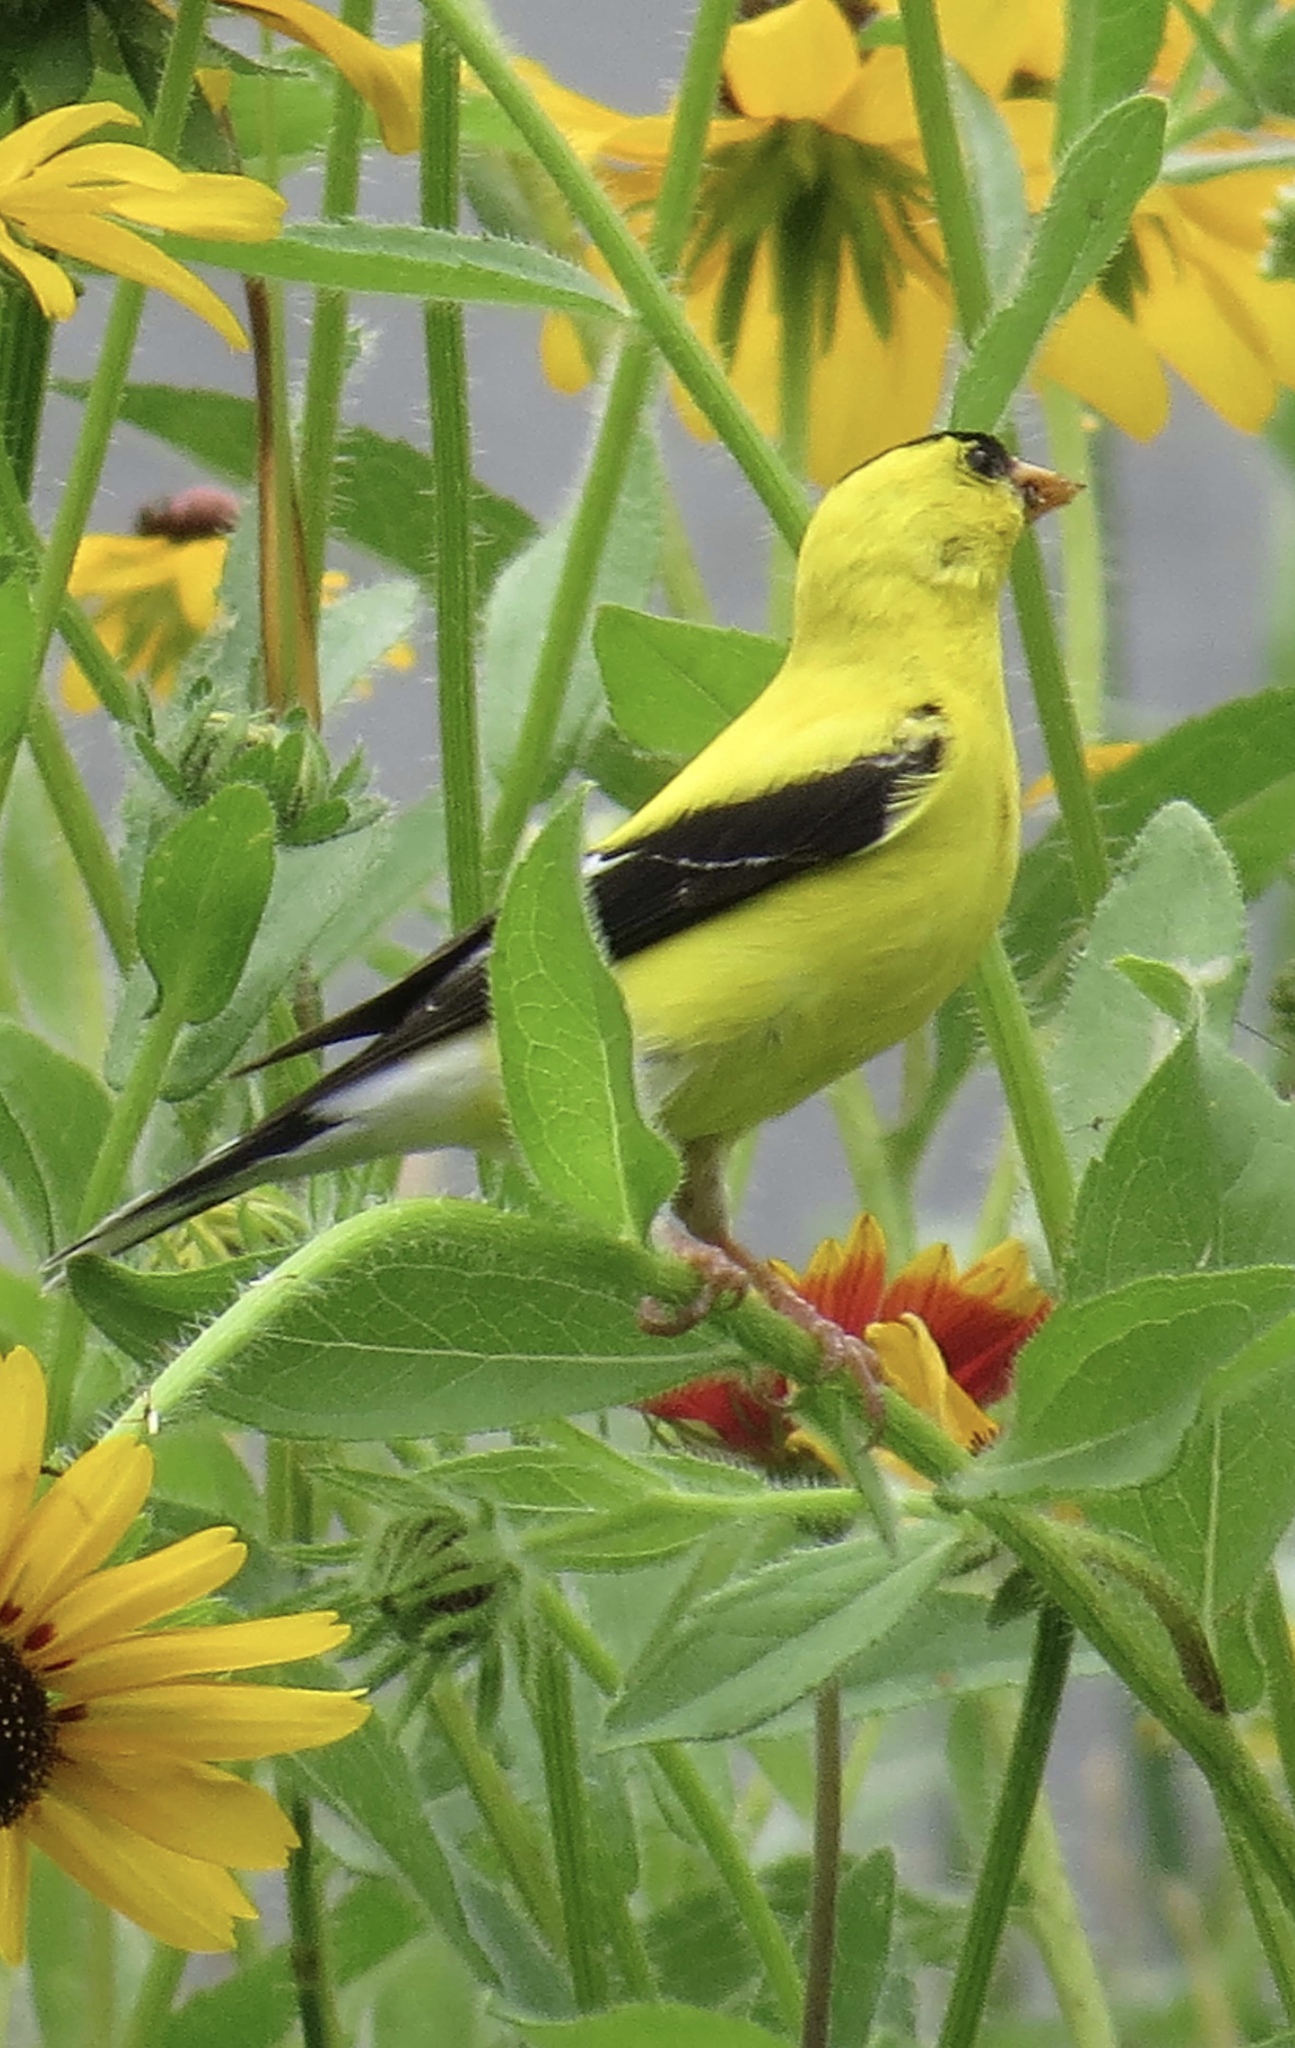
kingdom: Animalia
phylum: Chordata
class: Aves
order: Passeriformes
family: Fringillidae
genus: Spinus
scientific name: Spinus tristis
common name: American goldfinch
